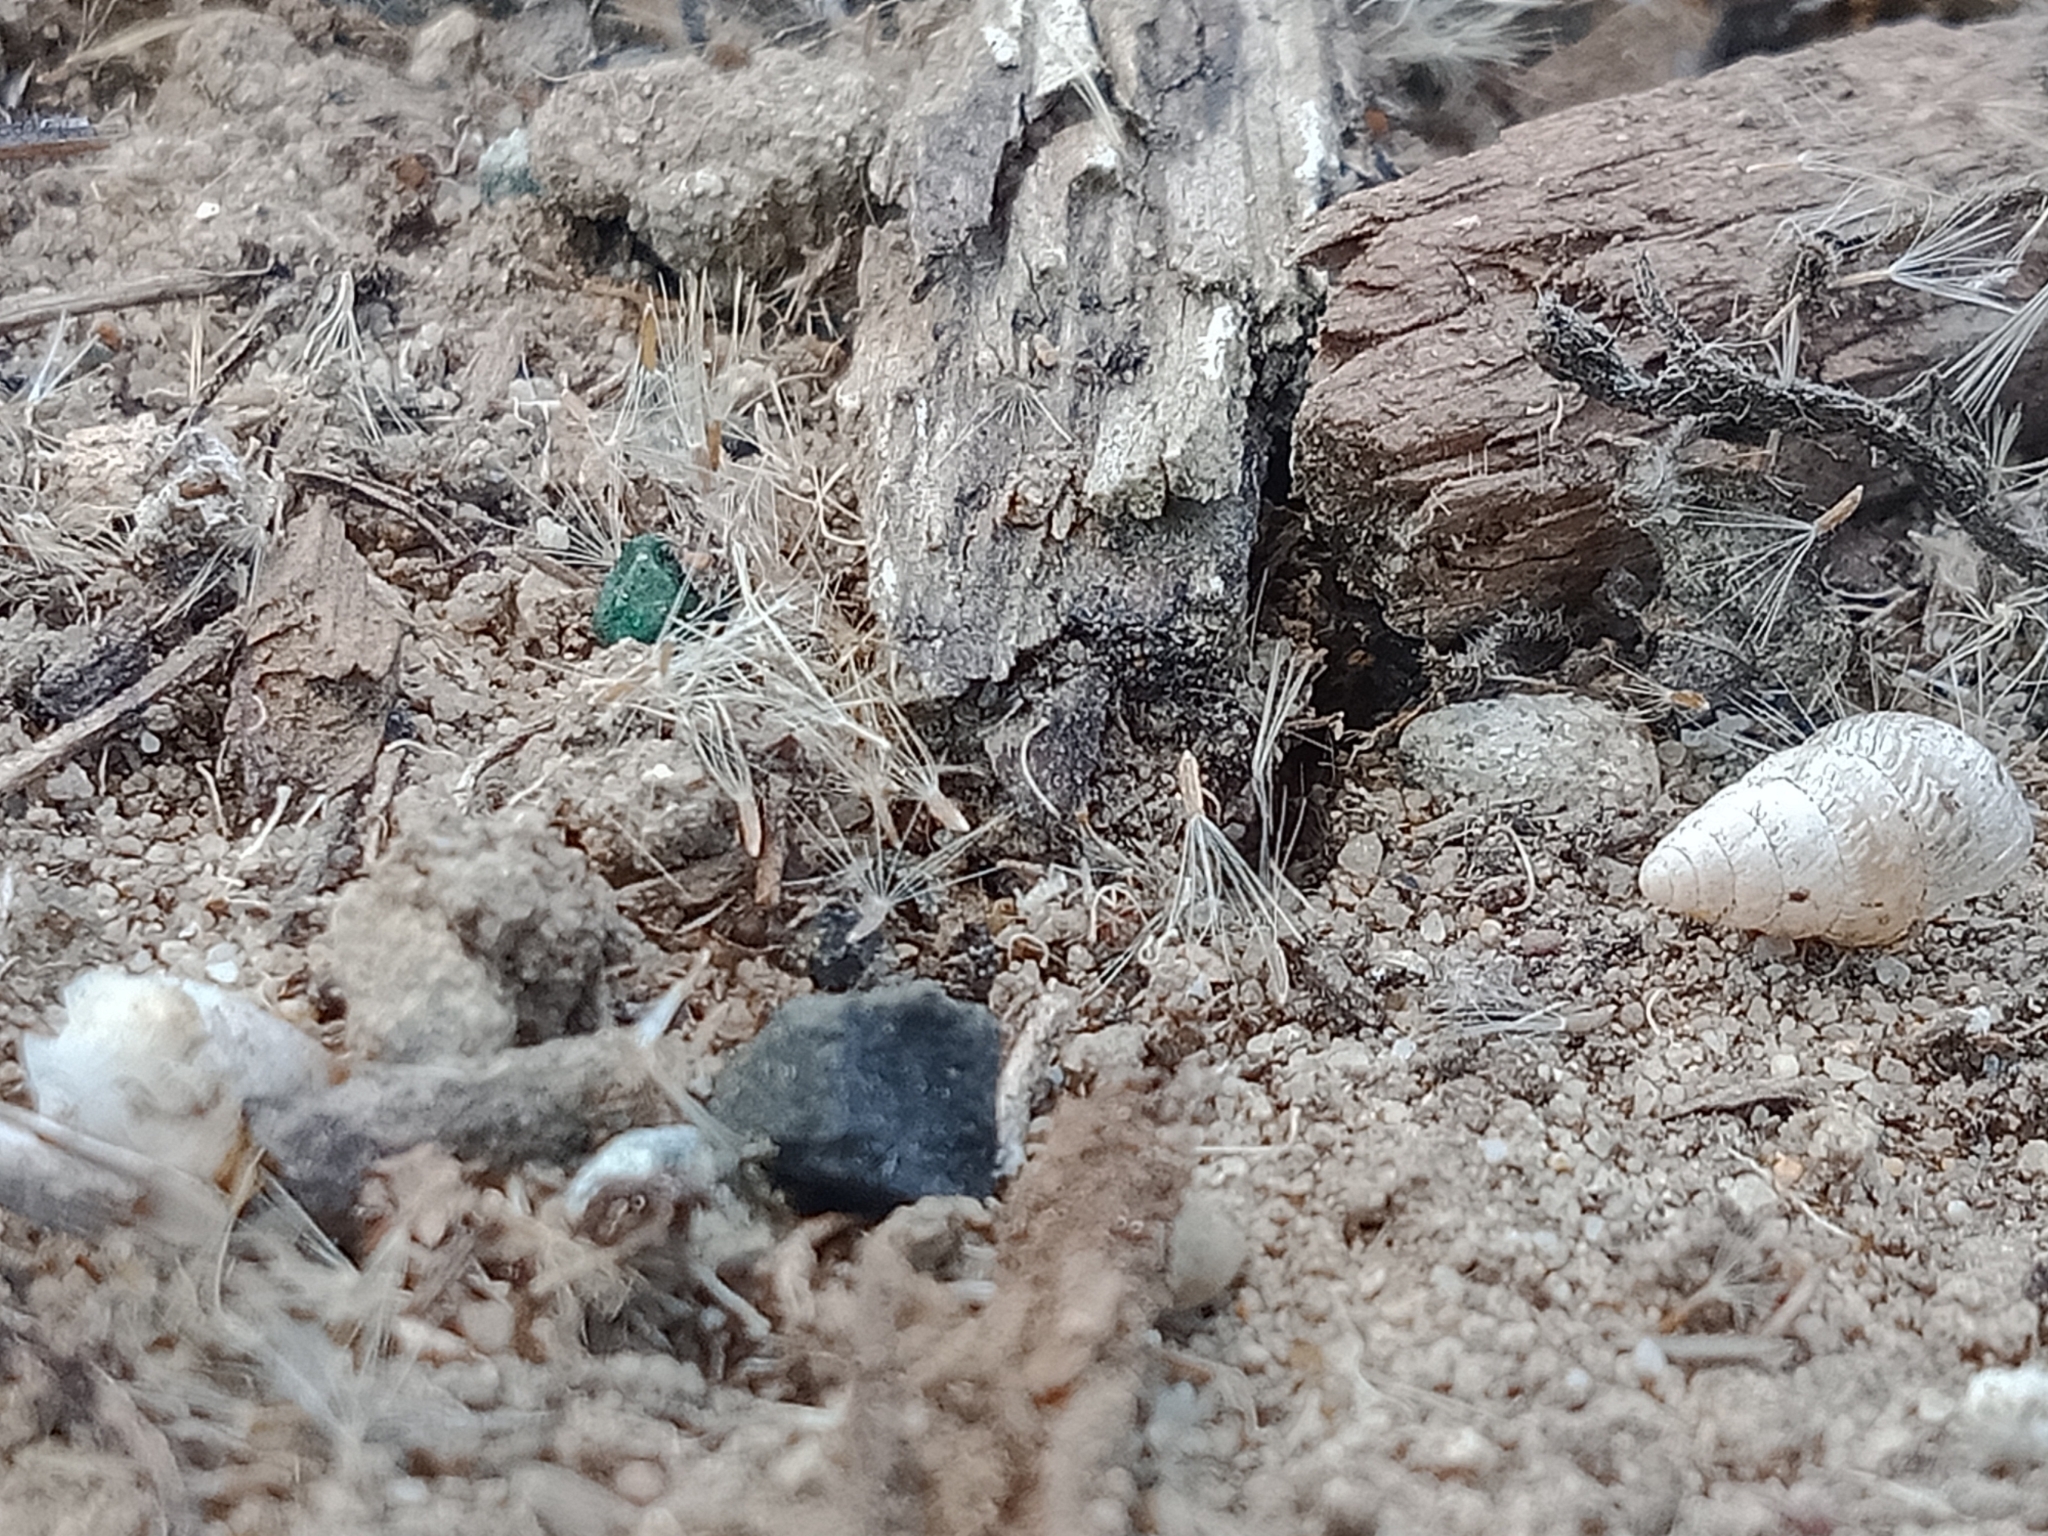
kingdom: Animalia
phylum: Mollusca
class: Gastropoda
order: Stylommatophora
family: Geomitridae
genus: Cochlicella
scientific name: Cochlicella barbara
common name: Potbellied helicellid
